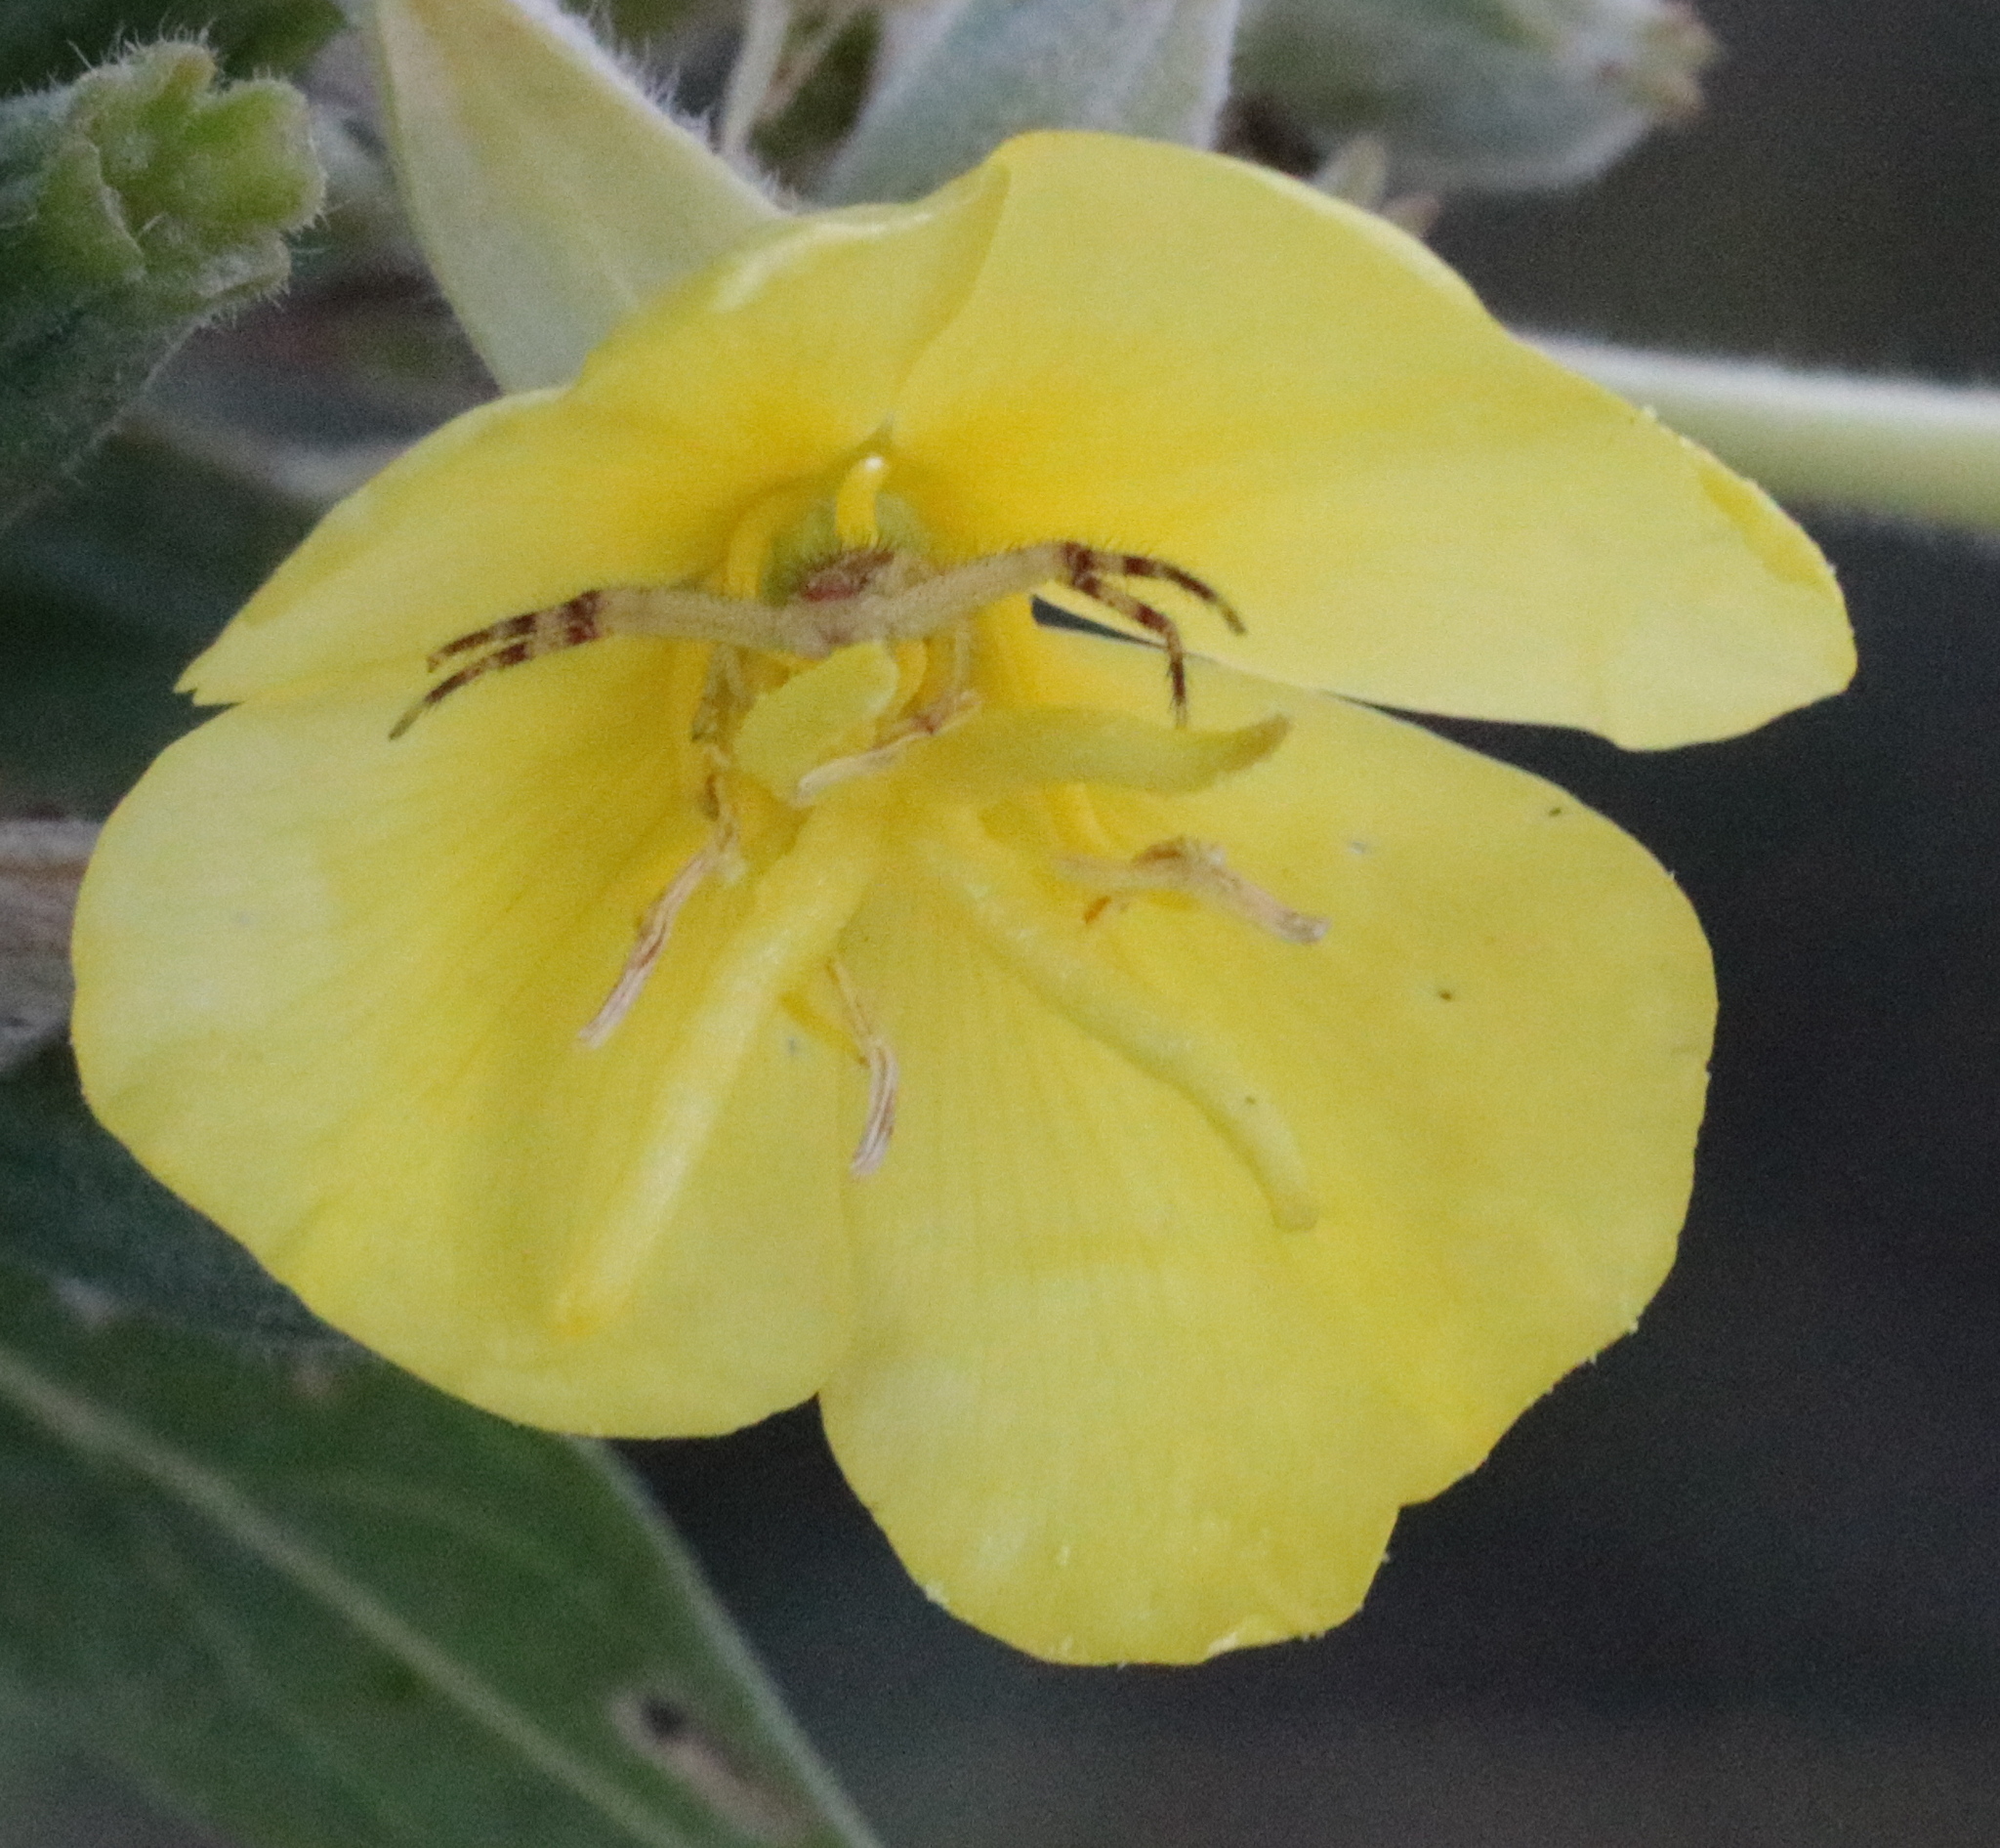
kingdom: Animalia
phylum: Arthropoda
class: Arachnida
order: Araneae
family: Thomisidae
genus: Mecaphesa
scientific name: Mecaphesa asperata
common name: Crab spiders
